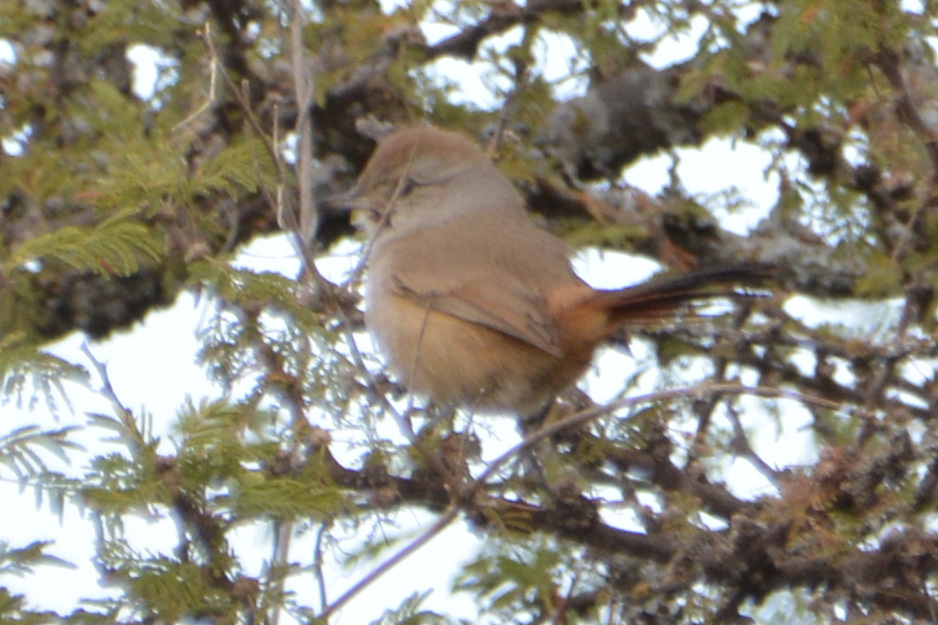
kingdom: Animalia
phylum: Chordata
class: Aves
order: Passeriformes
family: Furnariidae
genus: Asthenes
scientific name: Asthenes baeri
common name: Short-billed canastero
